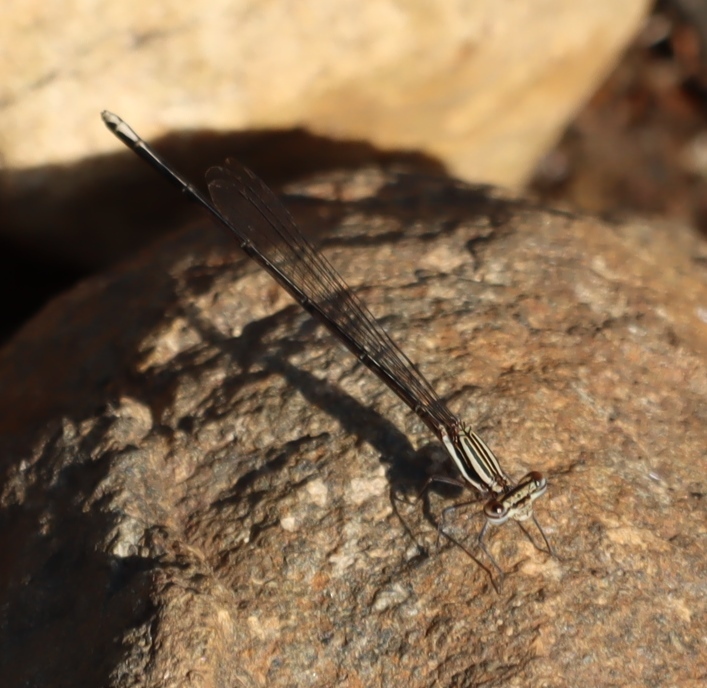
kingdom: Animalia
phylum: Arthropoda
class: Insecta
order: Odonata
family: Platycnemididae
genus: Elattoneura
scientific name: Elattoneura glauca
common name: Common threadtail
